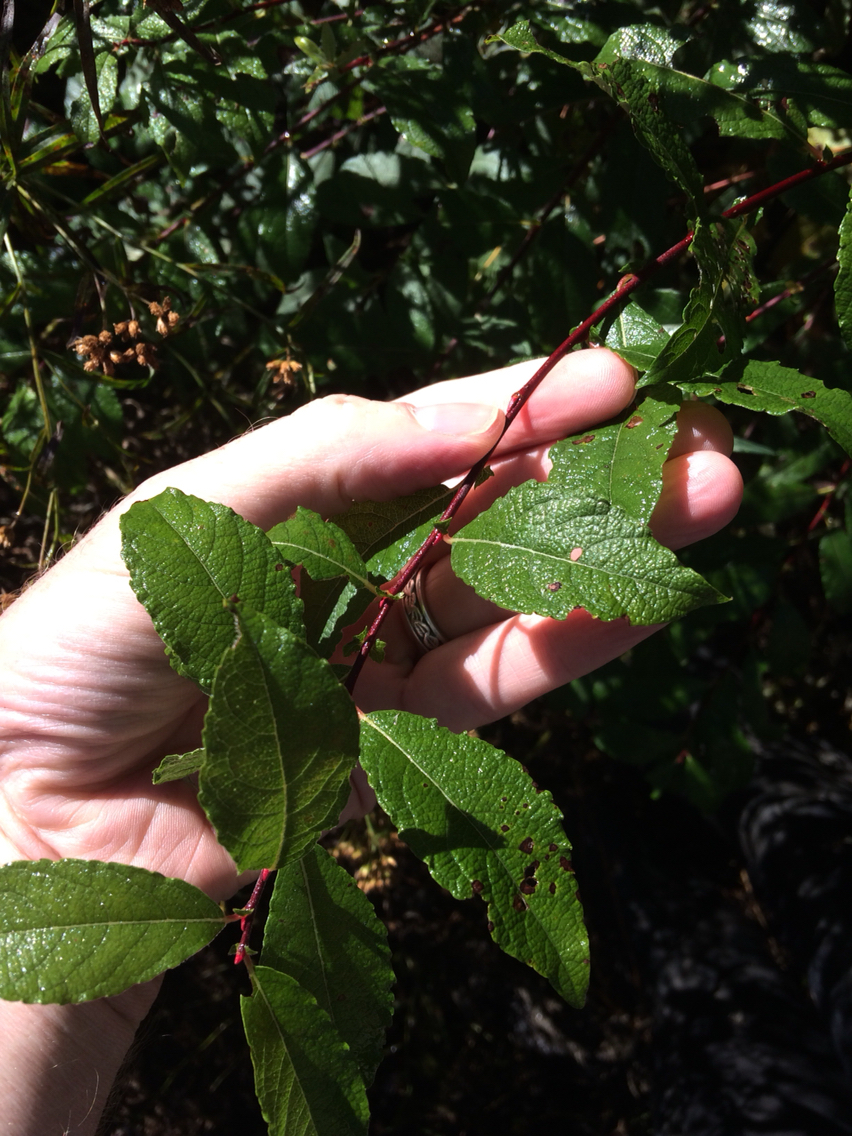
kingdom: Plantae
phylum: Tracheophyta
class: Magnoliopsida
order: Malpighiales
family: Salicaceae
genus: Salix
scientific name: Salix bebbiana
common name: Bebb's willow
